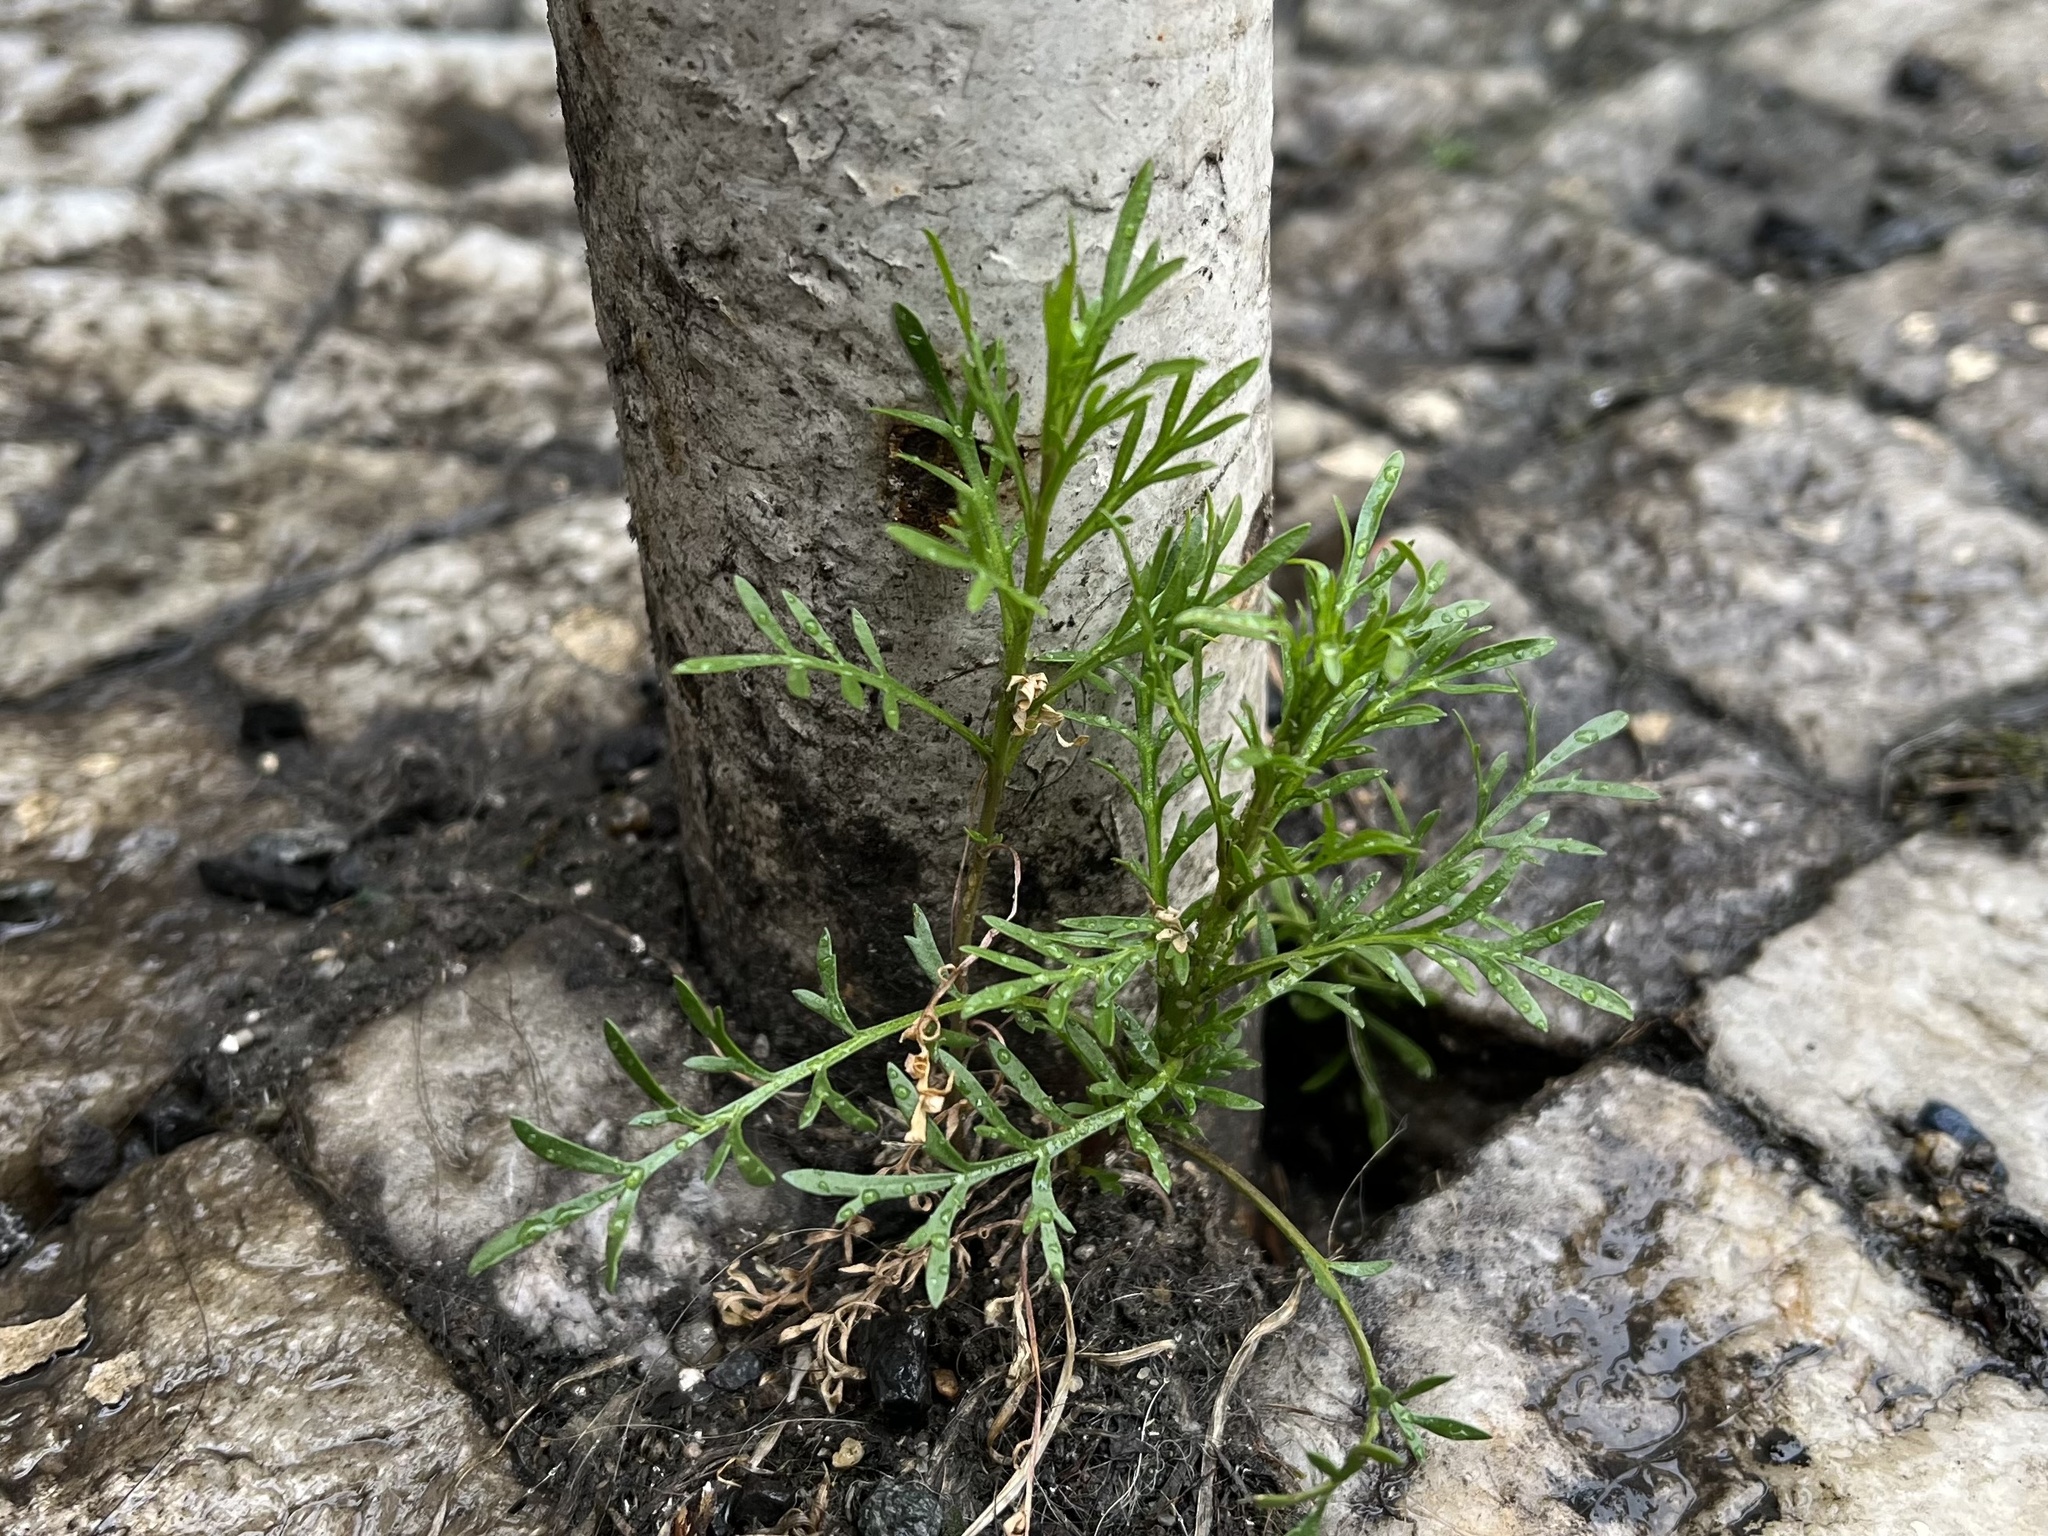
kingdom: Plantae
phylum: Tracheophyta
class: Magnoliopsida
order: Brassicales
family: Brassicaceae
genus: Lepidium
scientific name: Lepidium ruderale
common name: Narrow-leaved pepperwort
